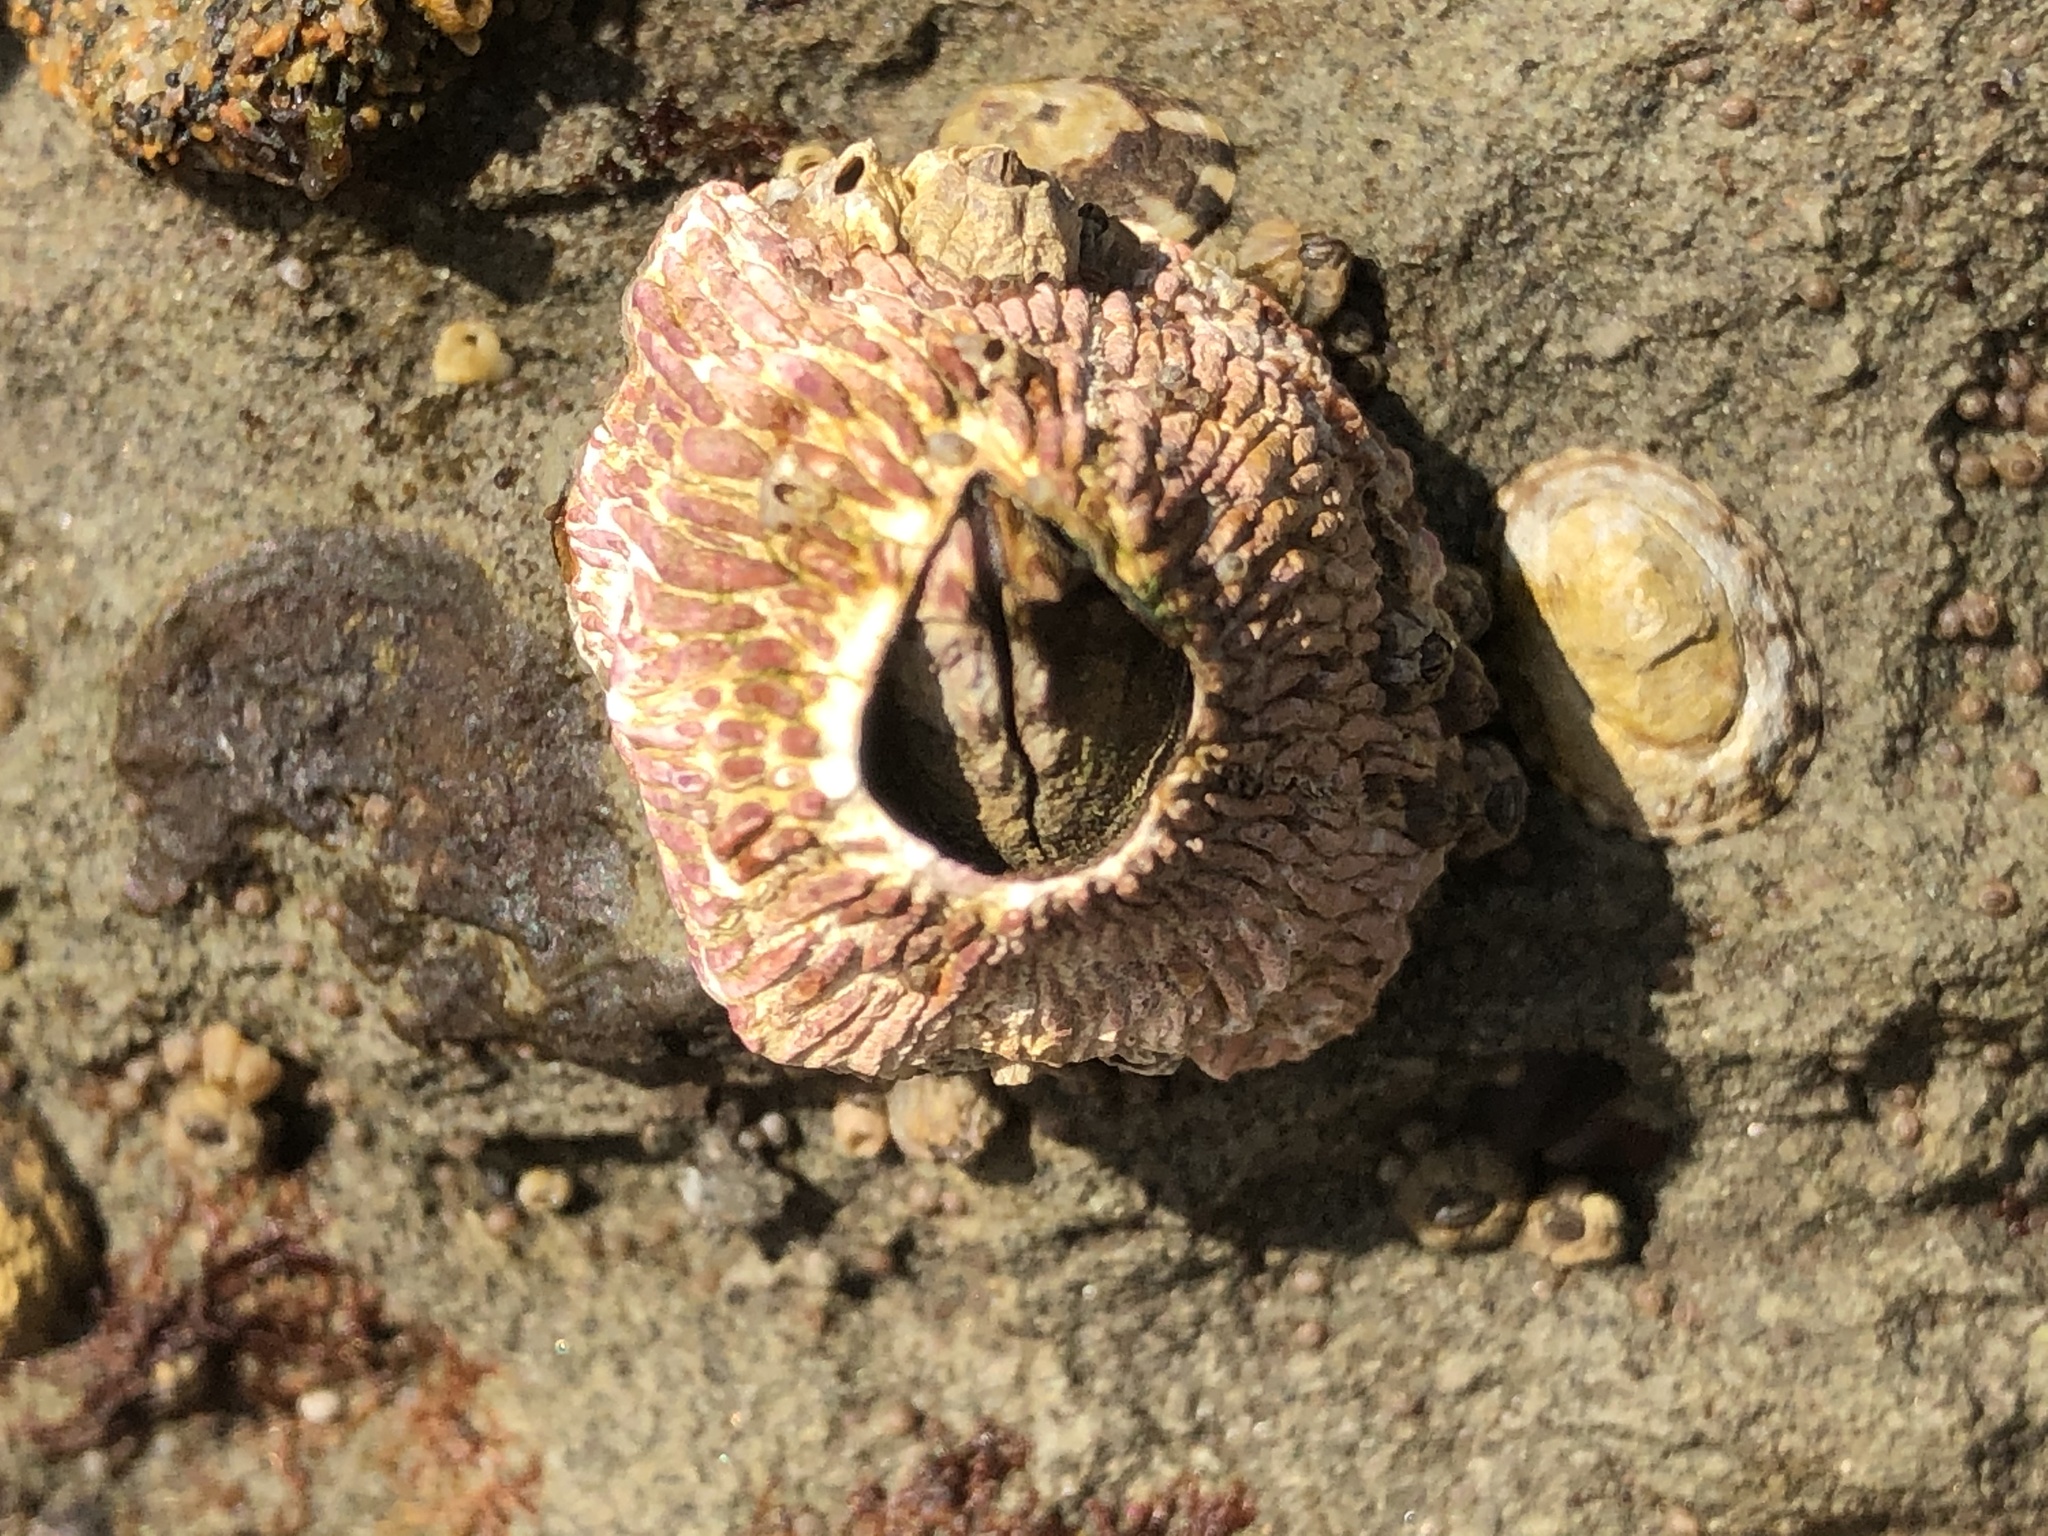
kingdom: Animalia
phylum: Arthropoda
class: Maxillopoda
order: Sessilia
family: Tetraclitidae
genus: Tetraclita
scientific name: Tetraclita rubescens
